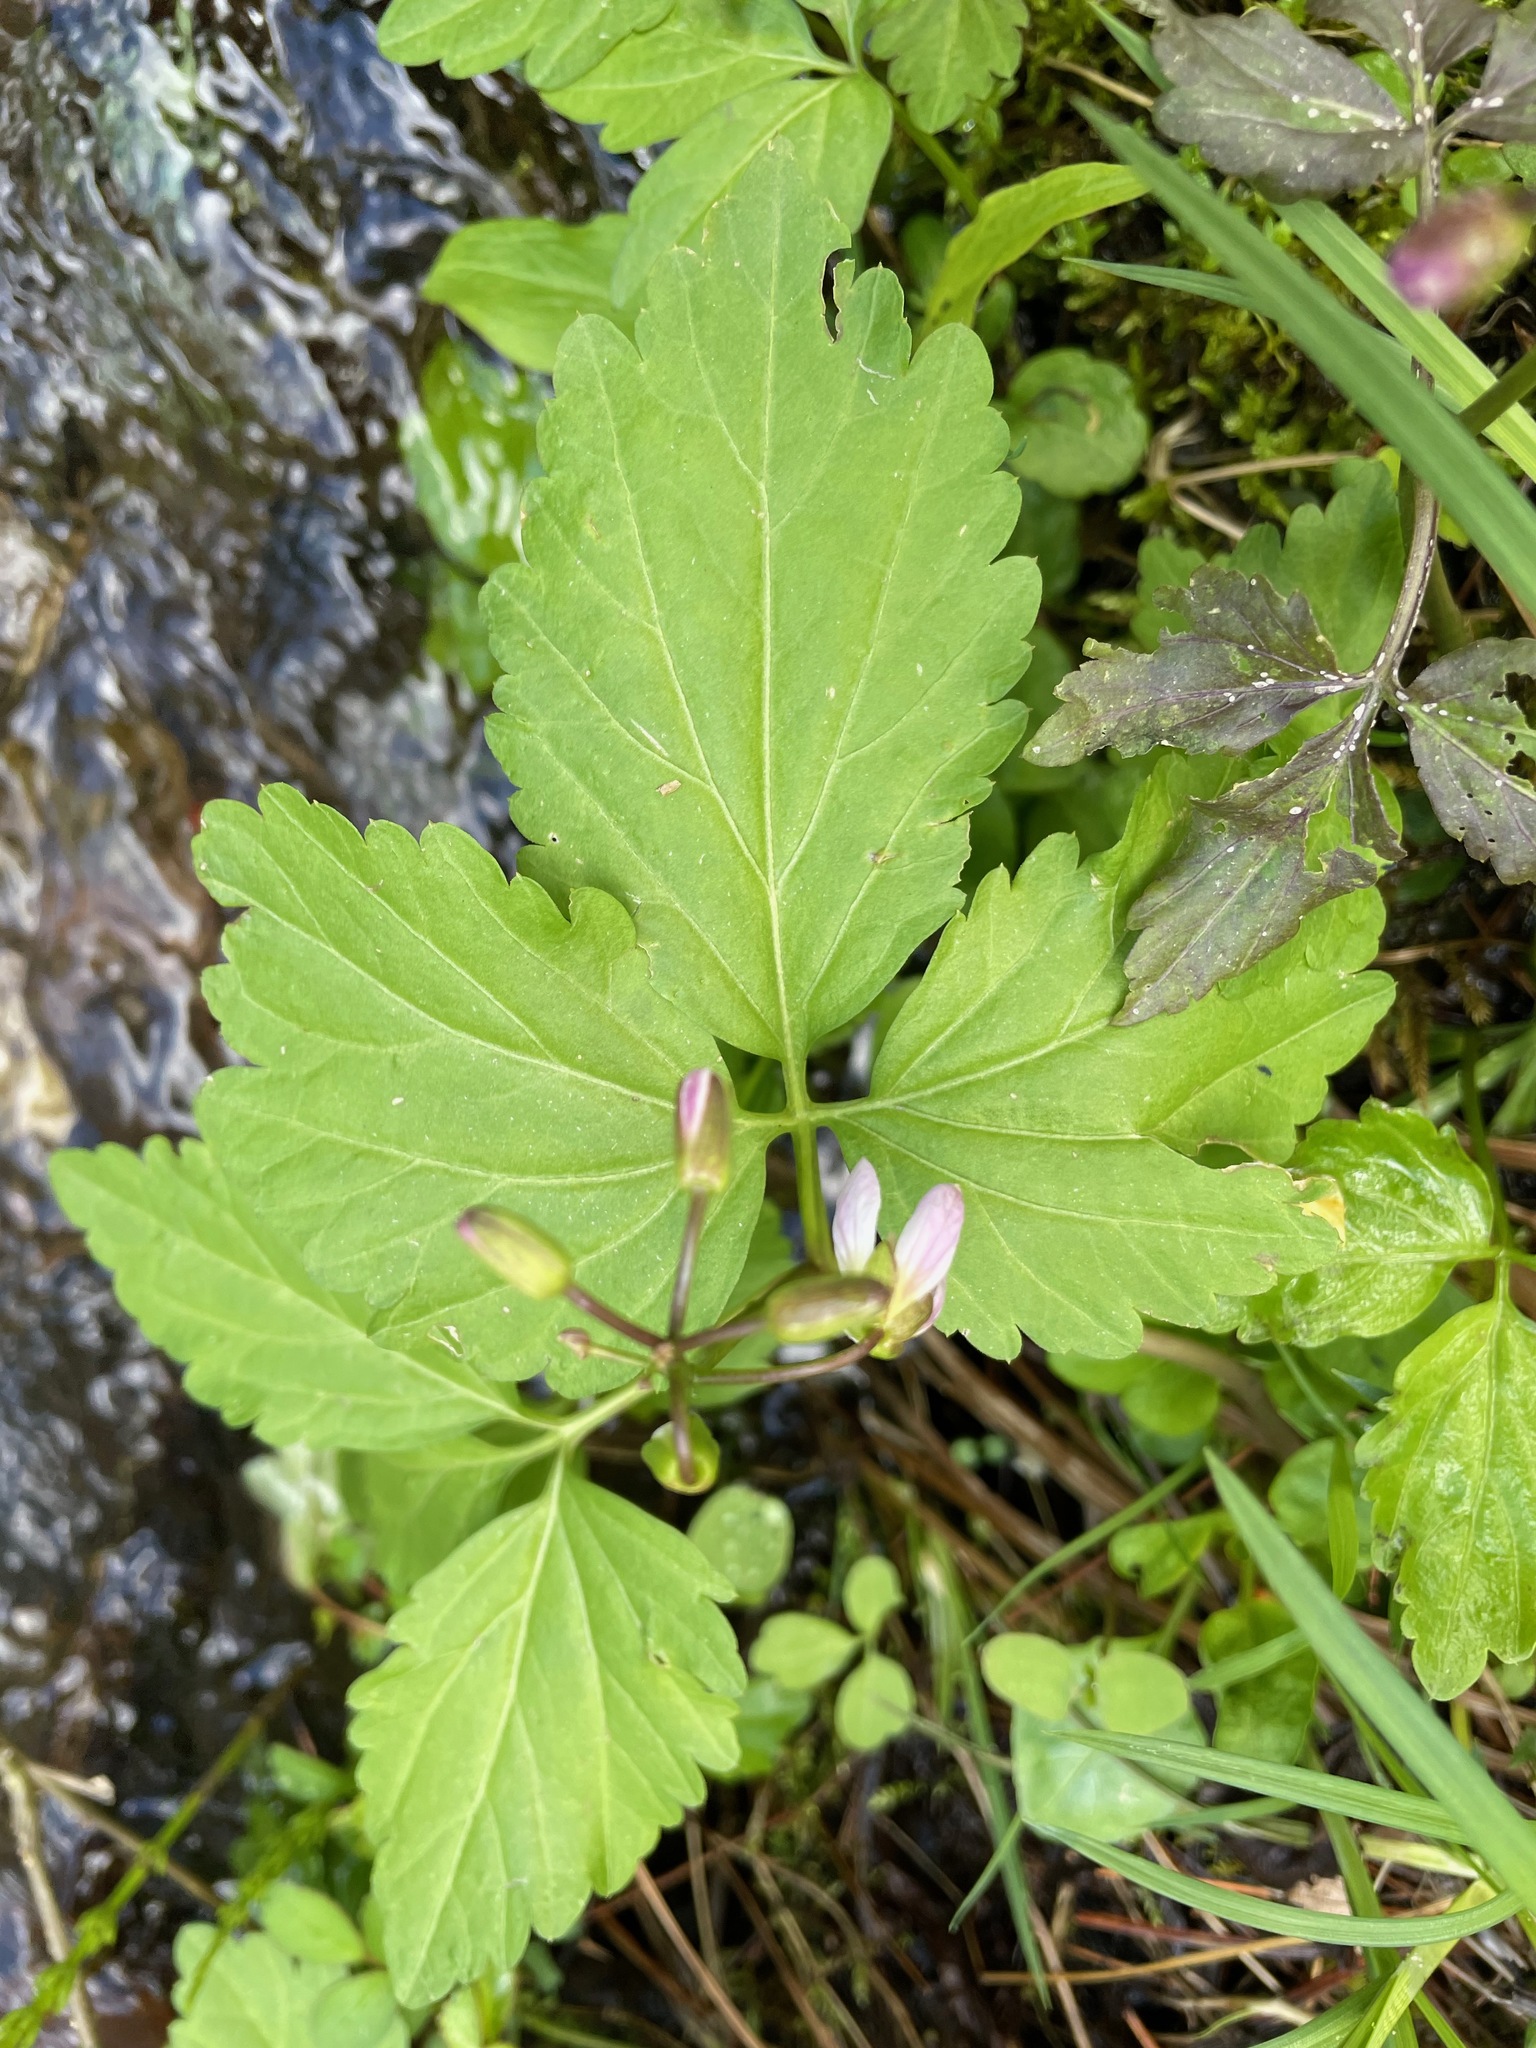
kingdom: Plantae
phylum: Tracheophyta
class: Magnoliopsida
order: Brassicales
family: Brassicaceae
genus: Cardamine
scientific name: Cardamine diphylla
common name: Broad-leaved toothwort
